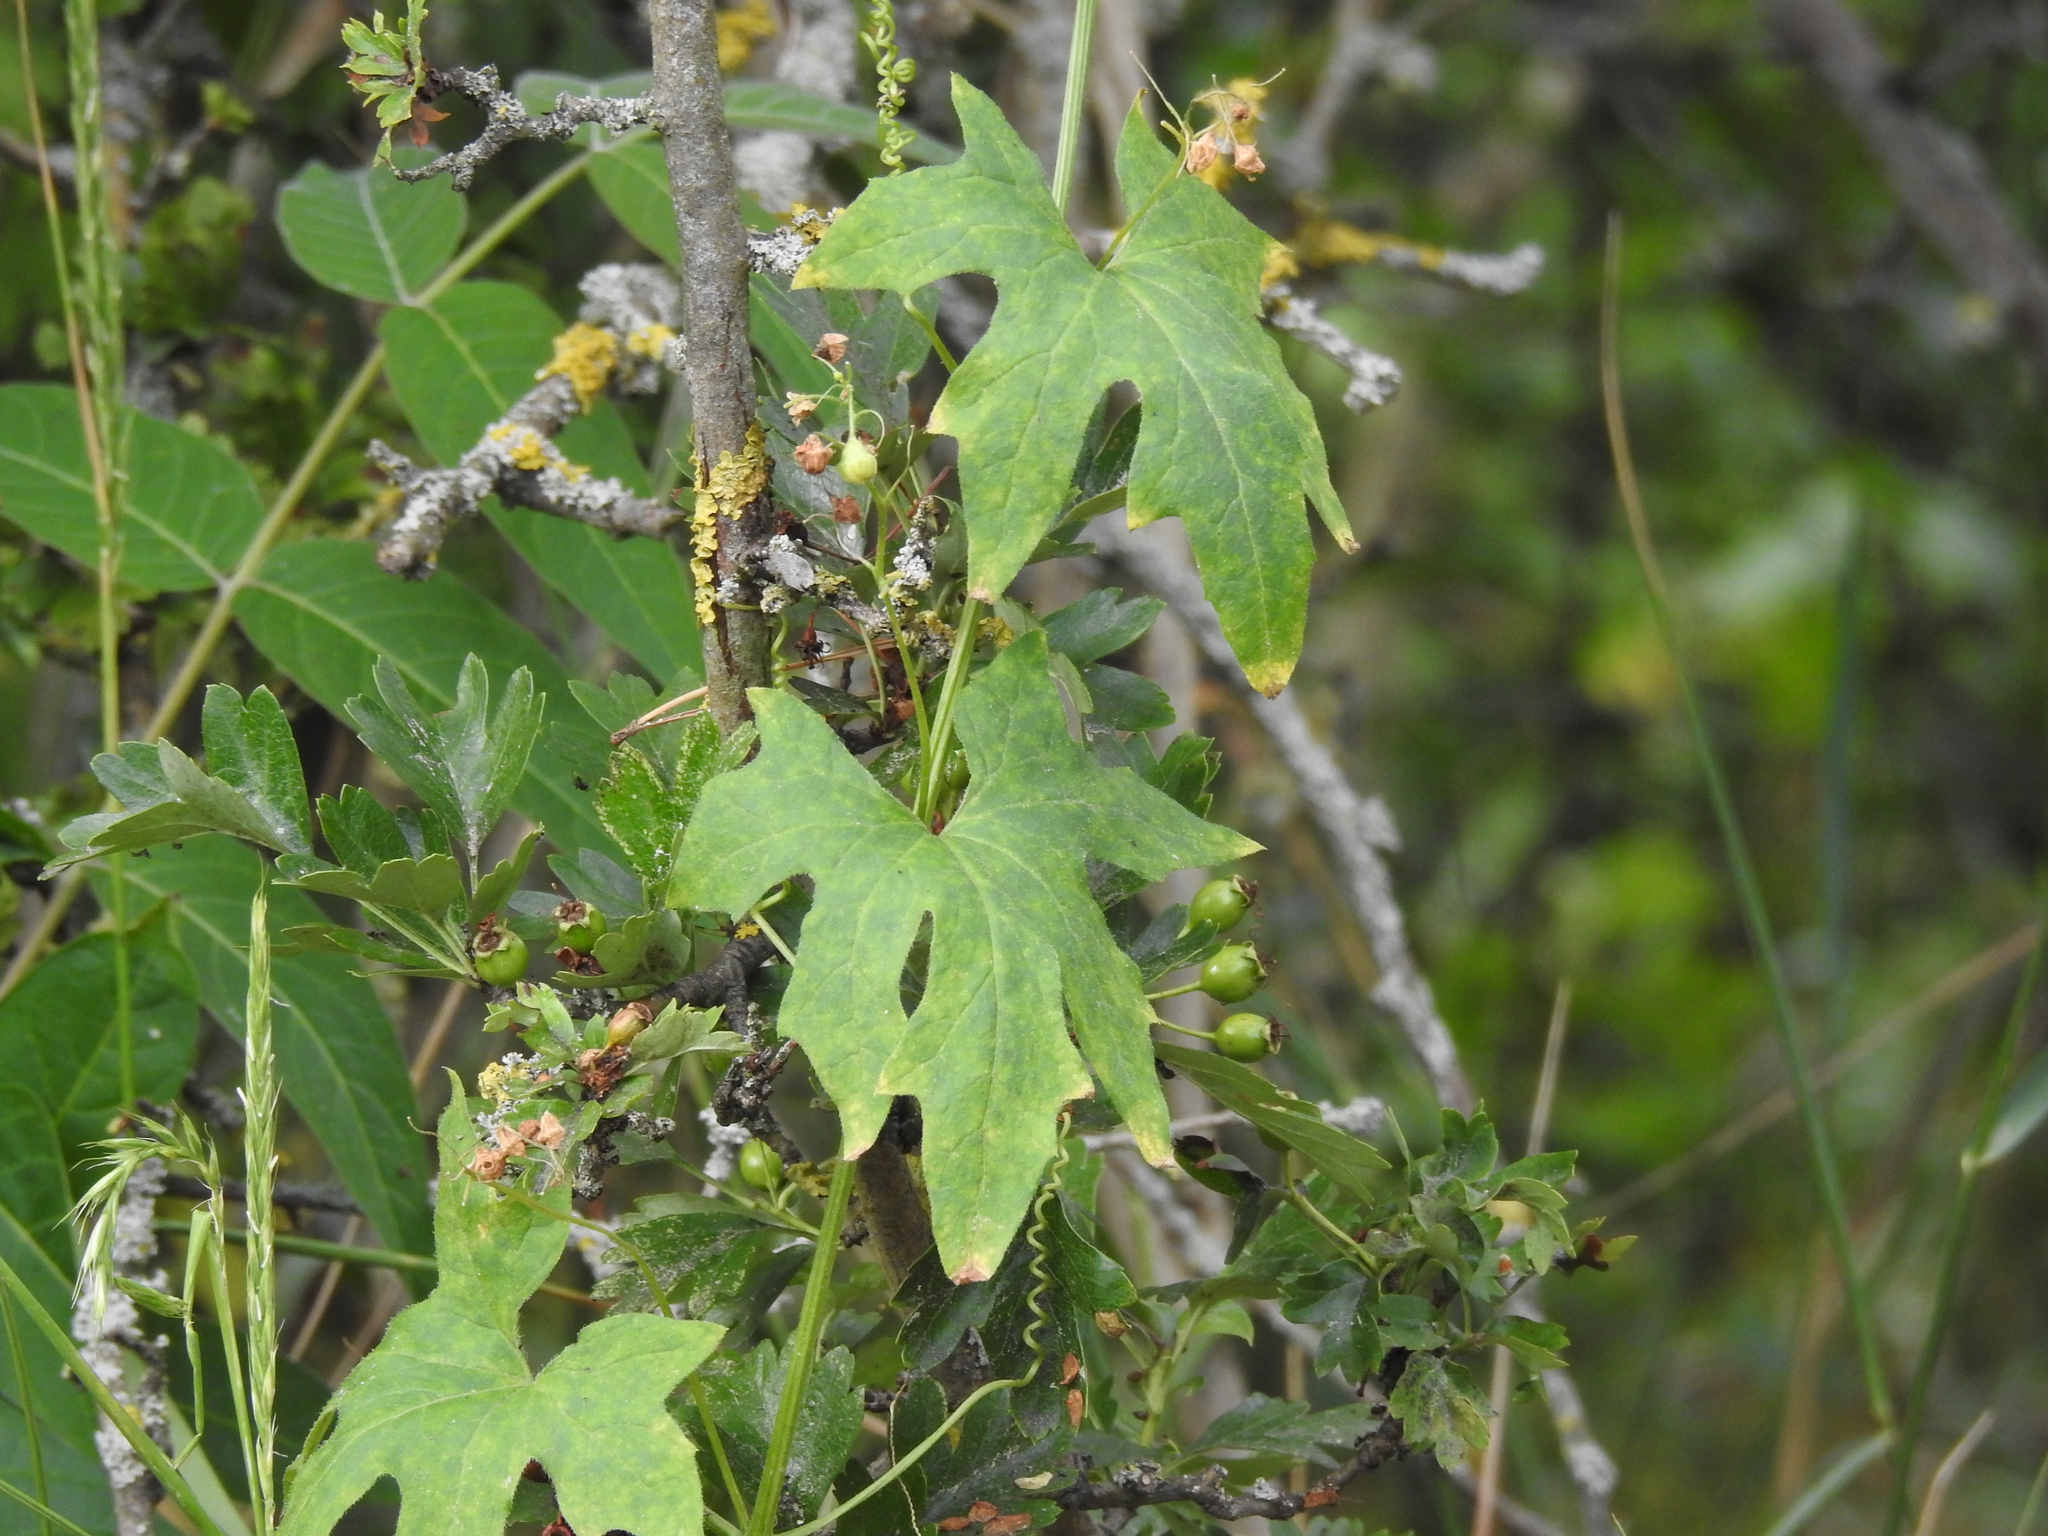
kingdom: Plantae
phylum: Tracheophyta
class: Magnoliopsida
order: Cucurbitales
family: Cucurbitaceae
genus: Bryonia
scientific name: Bryonia cretica
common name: Cretan bryony
